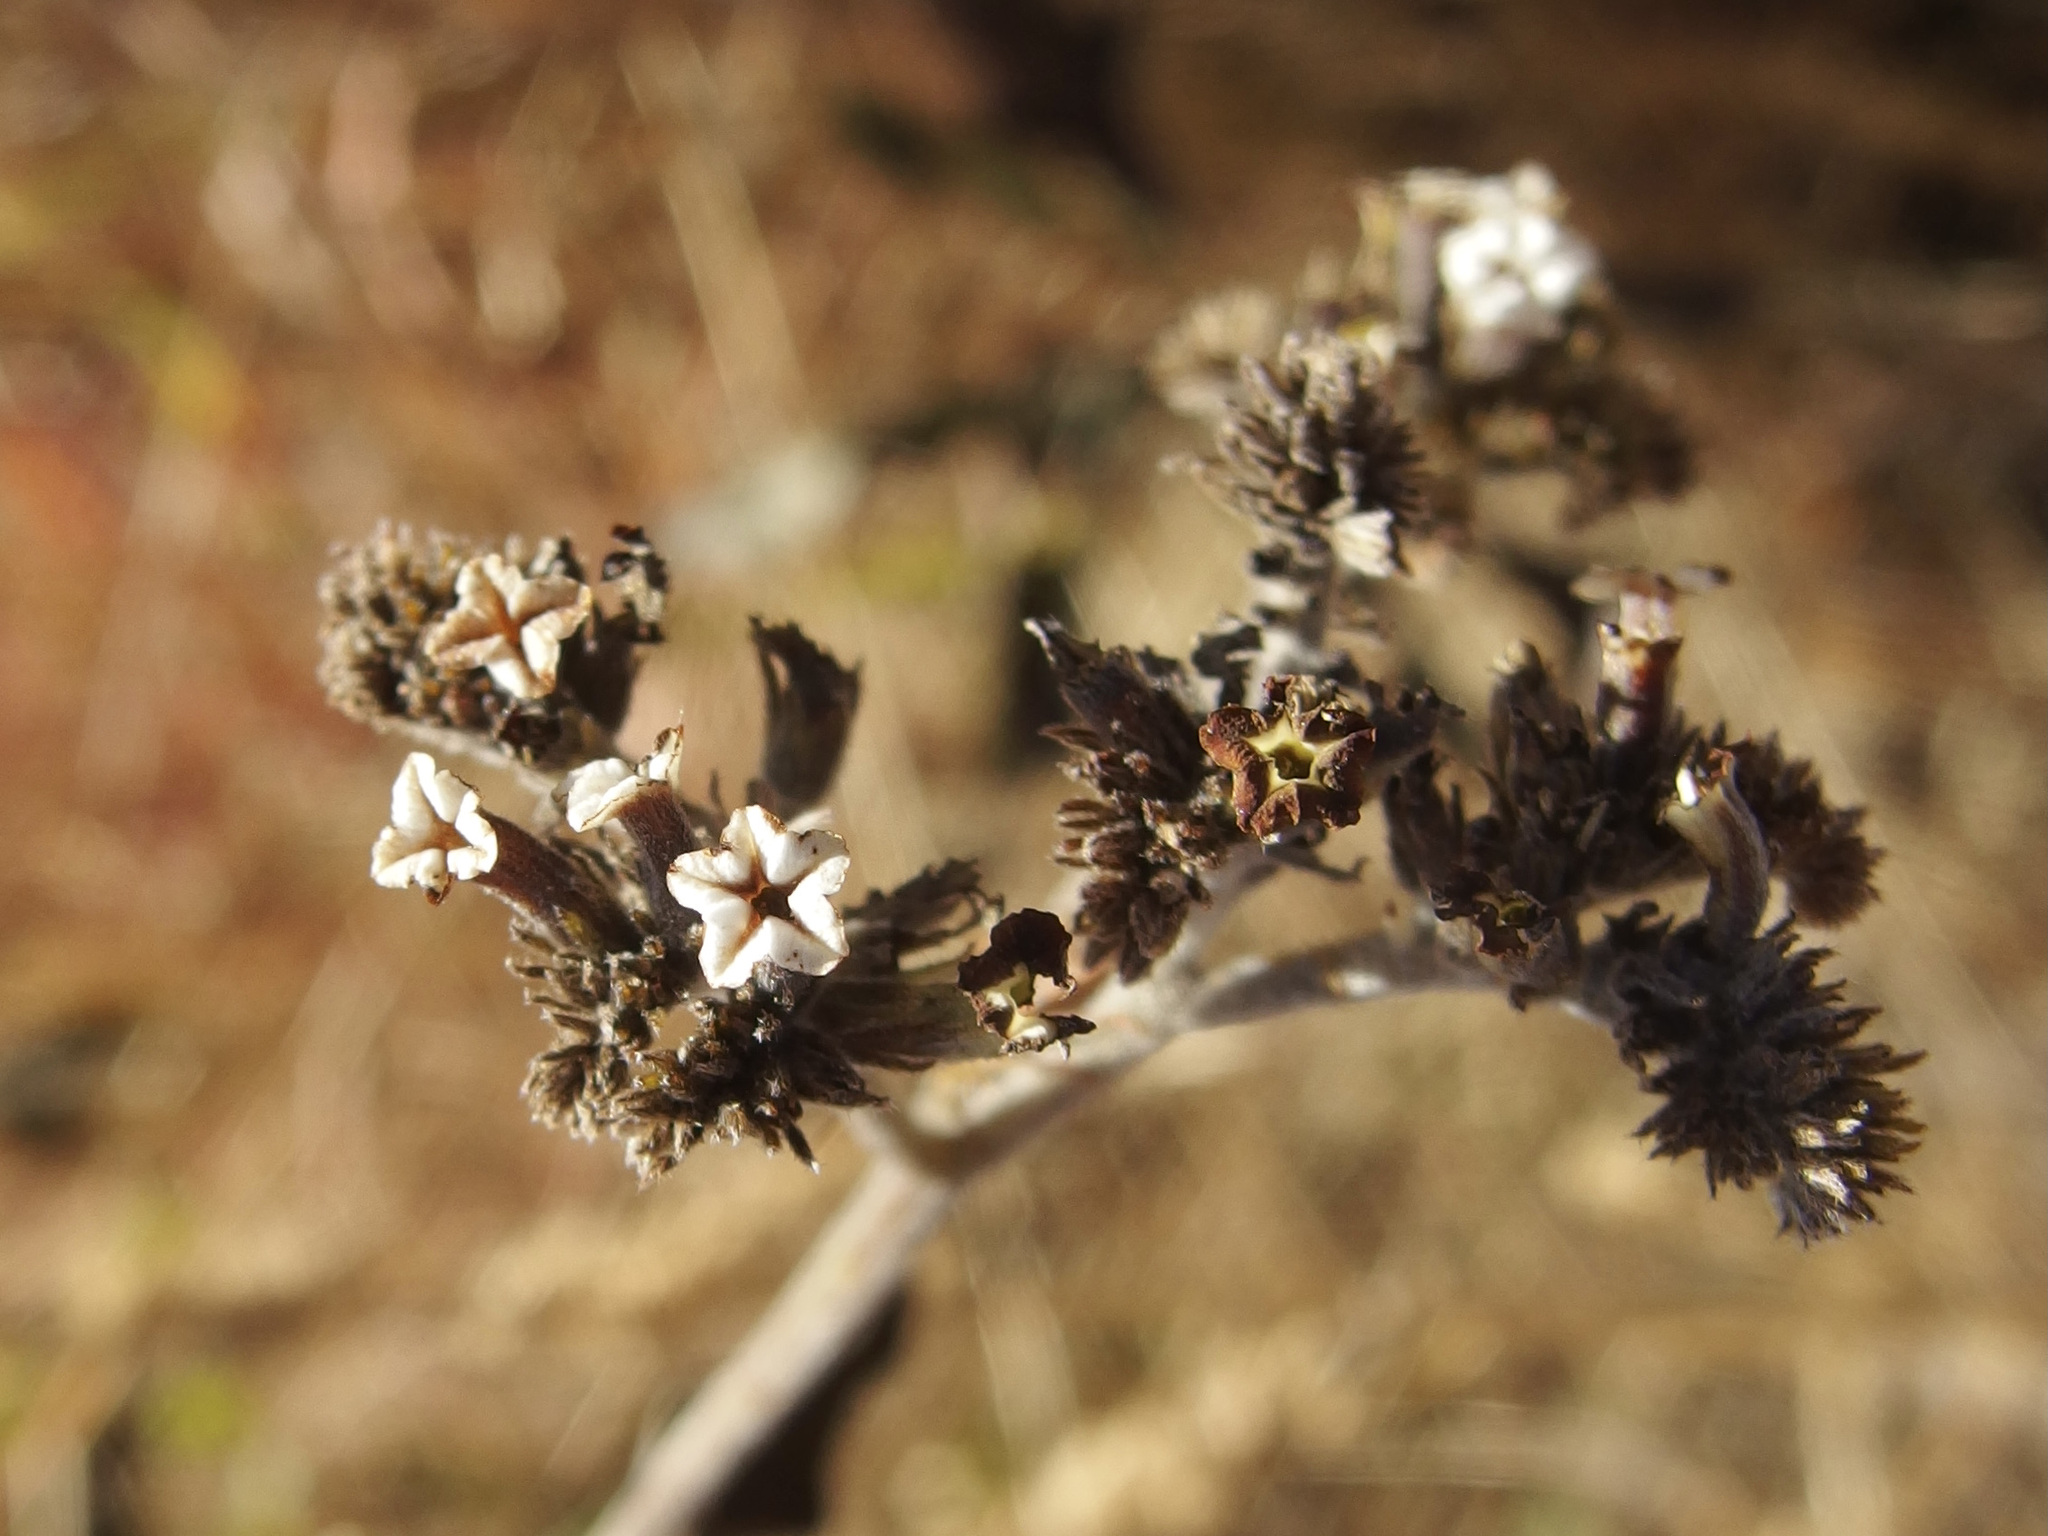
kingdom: Plantae
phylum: Tracheophyta
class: Magnoliopsida
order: Boraginales
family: Heliotropiaceae
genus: Tournefortia
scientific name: Tournefortia mutabilis
